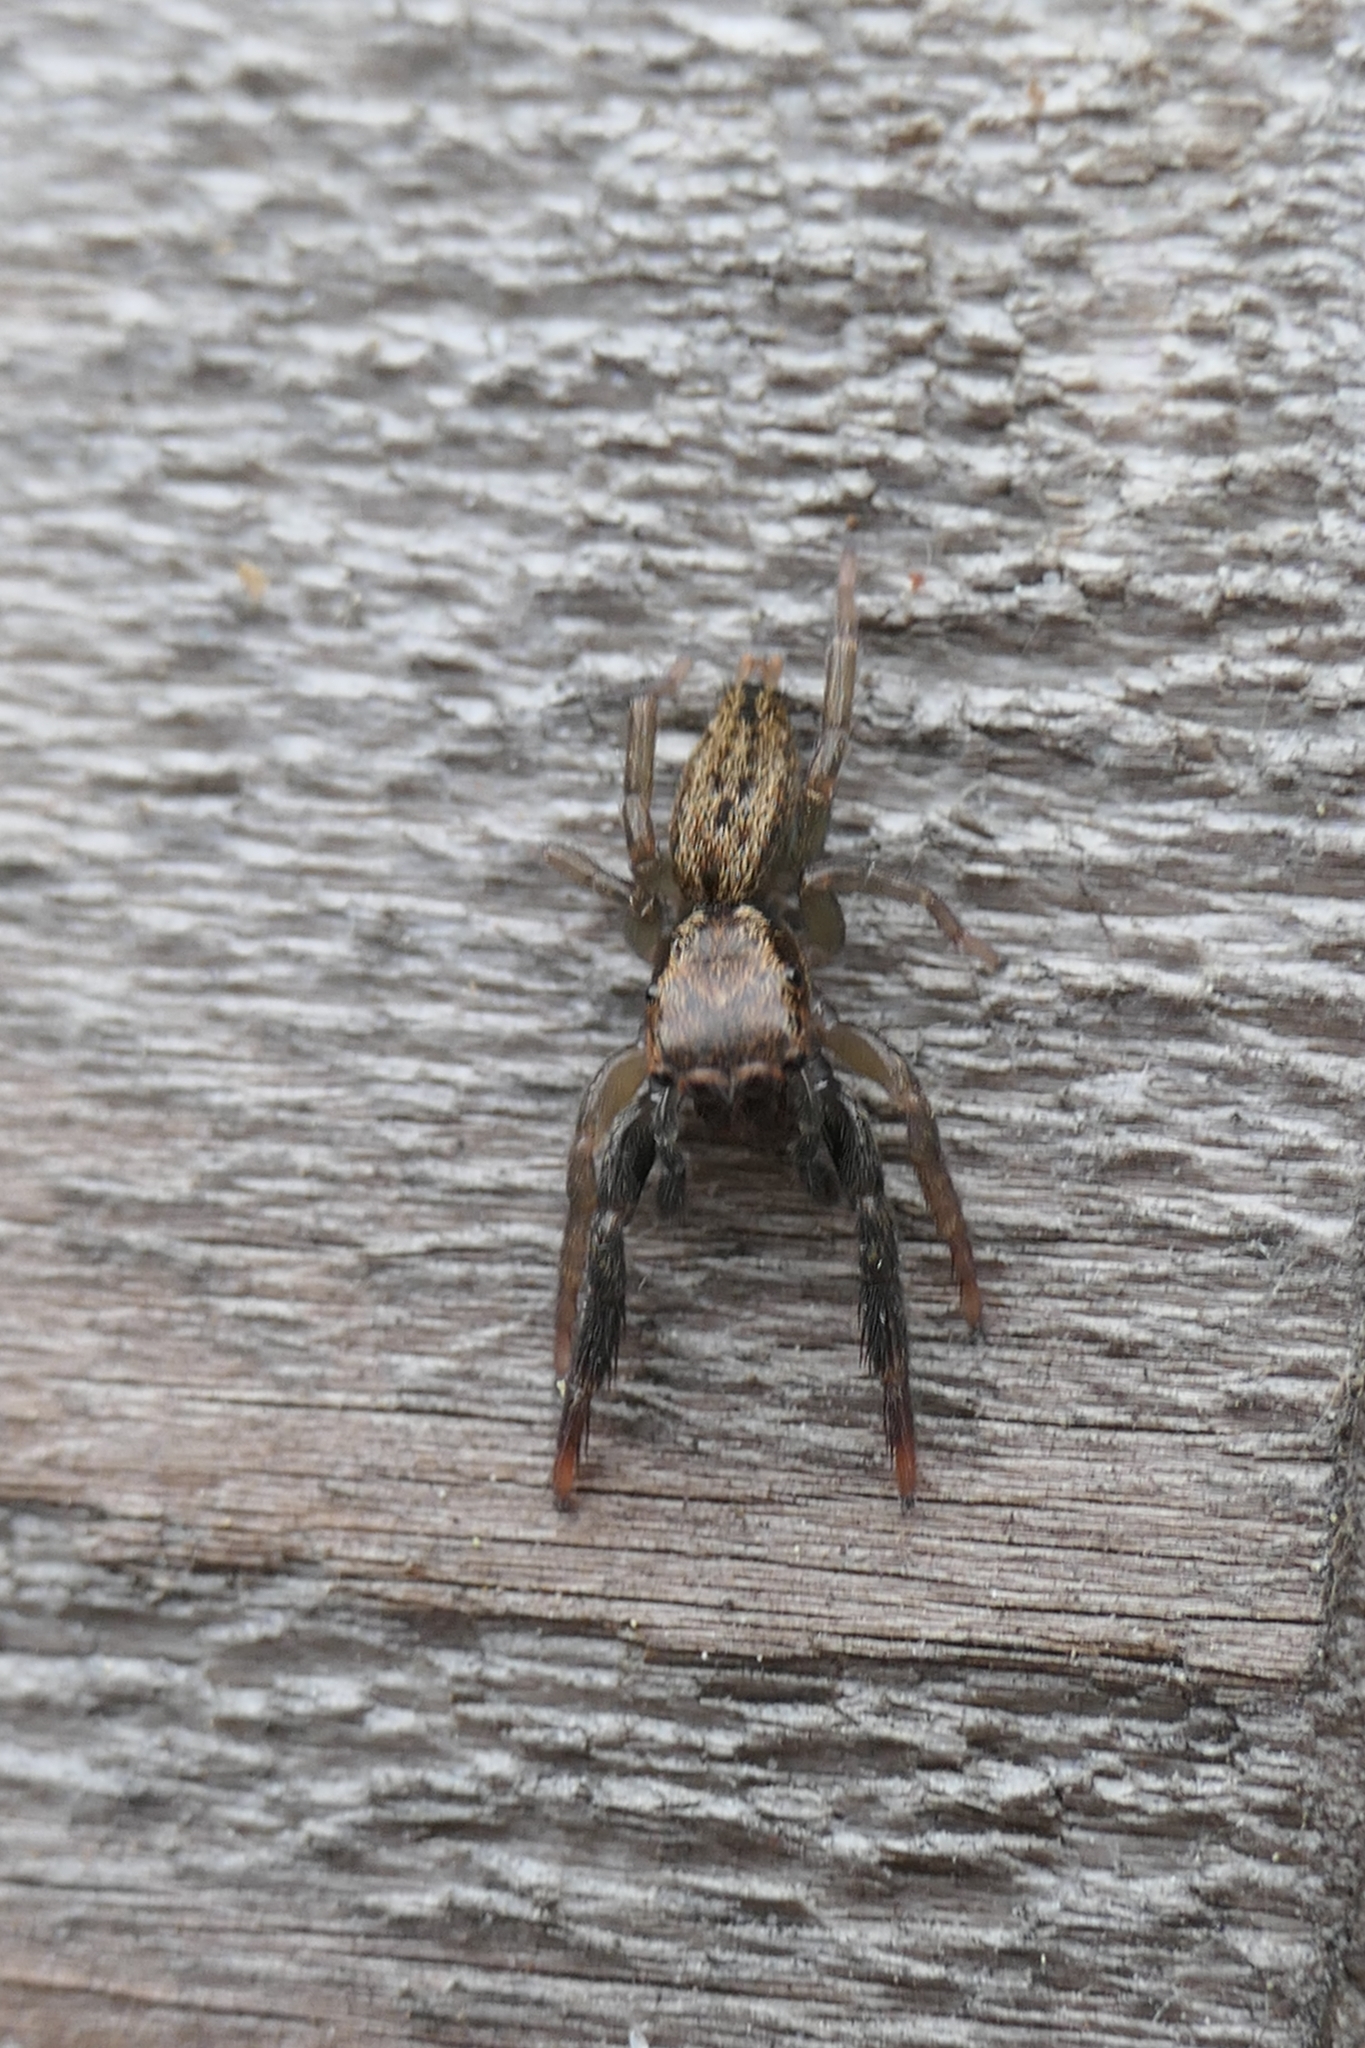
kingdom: Animalia
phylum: Arthropoda
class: Arachnida
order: Araneae
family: Salticidae
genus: Trite
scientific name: Trite auricoma
